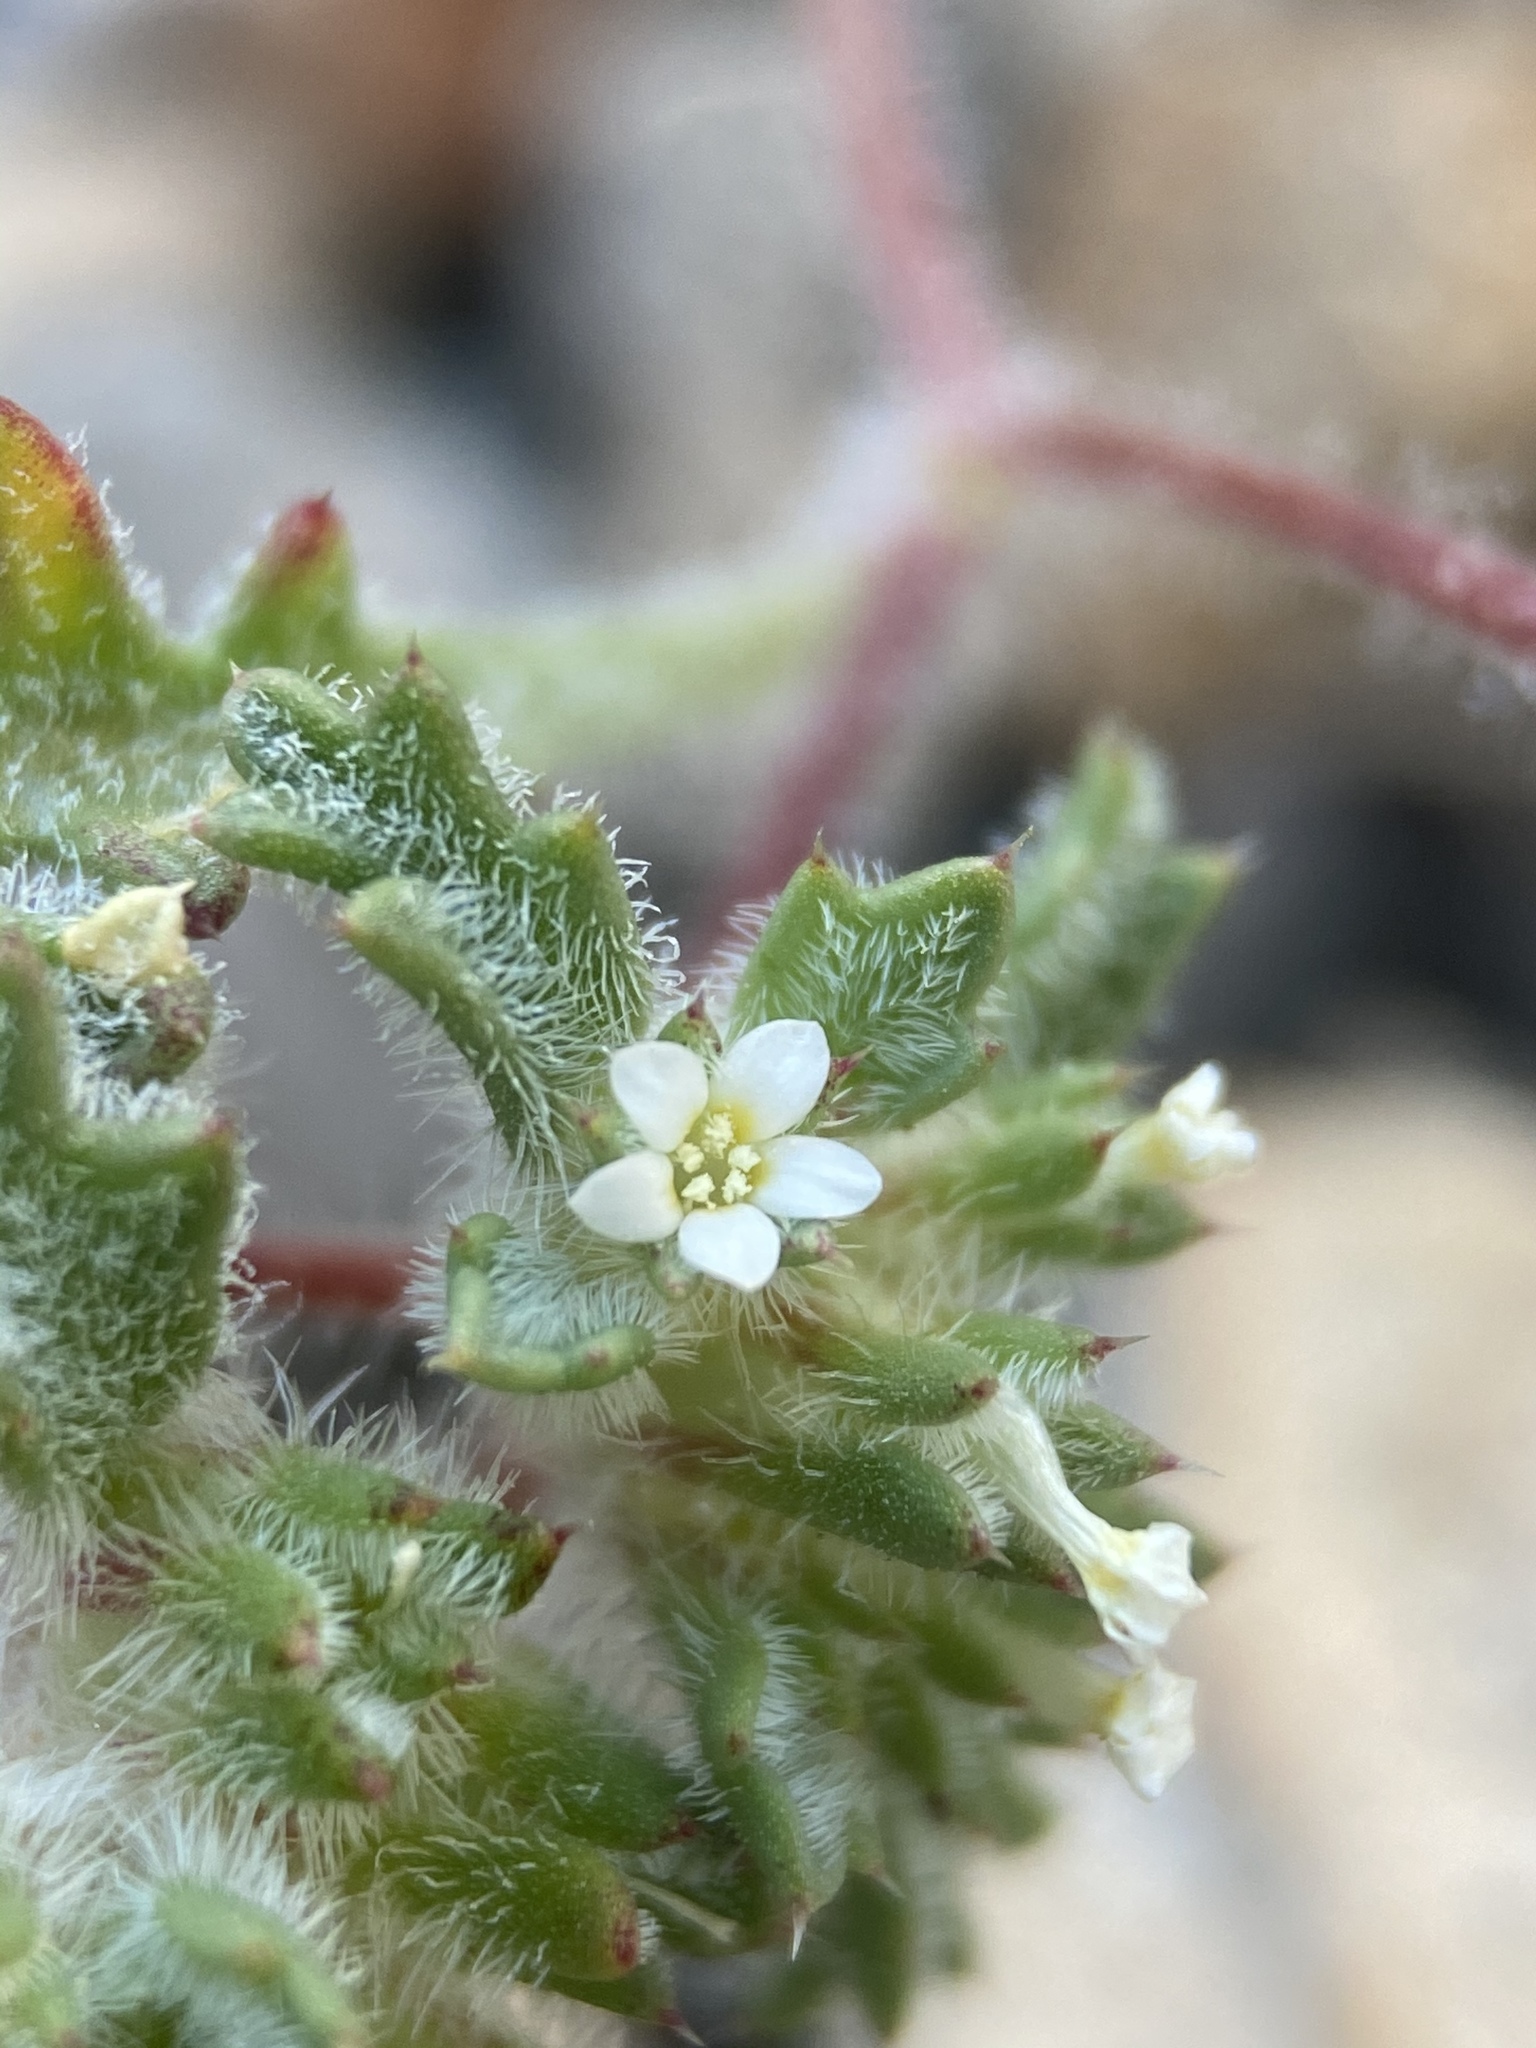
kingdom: Plantae
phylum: Tracheophyta
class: Magnoliopsida
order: Ericales
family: Polemoniaceae
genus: Ipomopsis
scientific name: Ipomopsis polycladon
